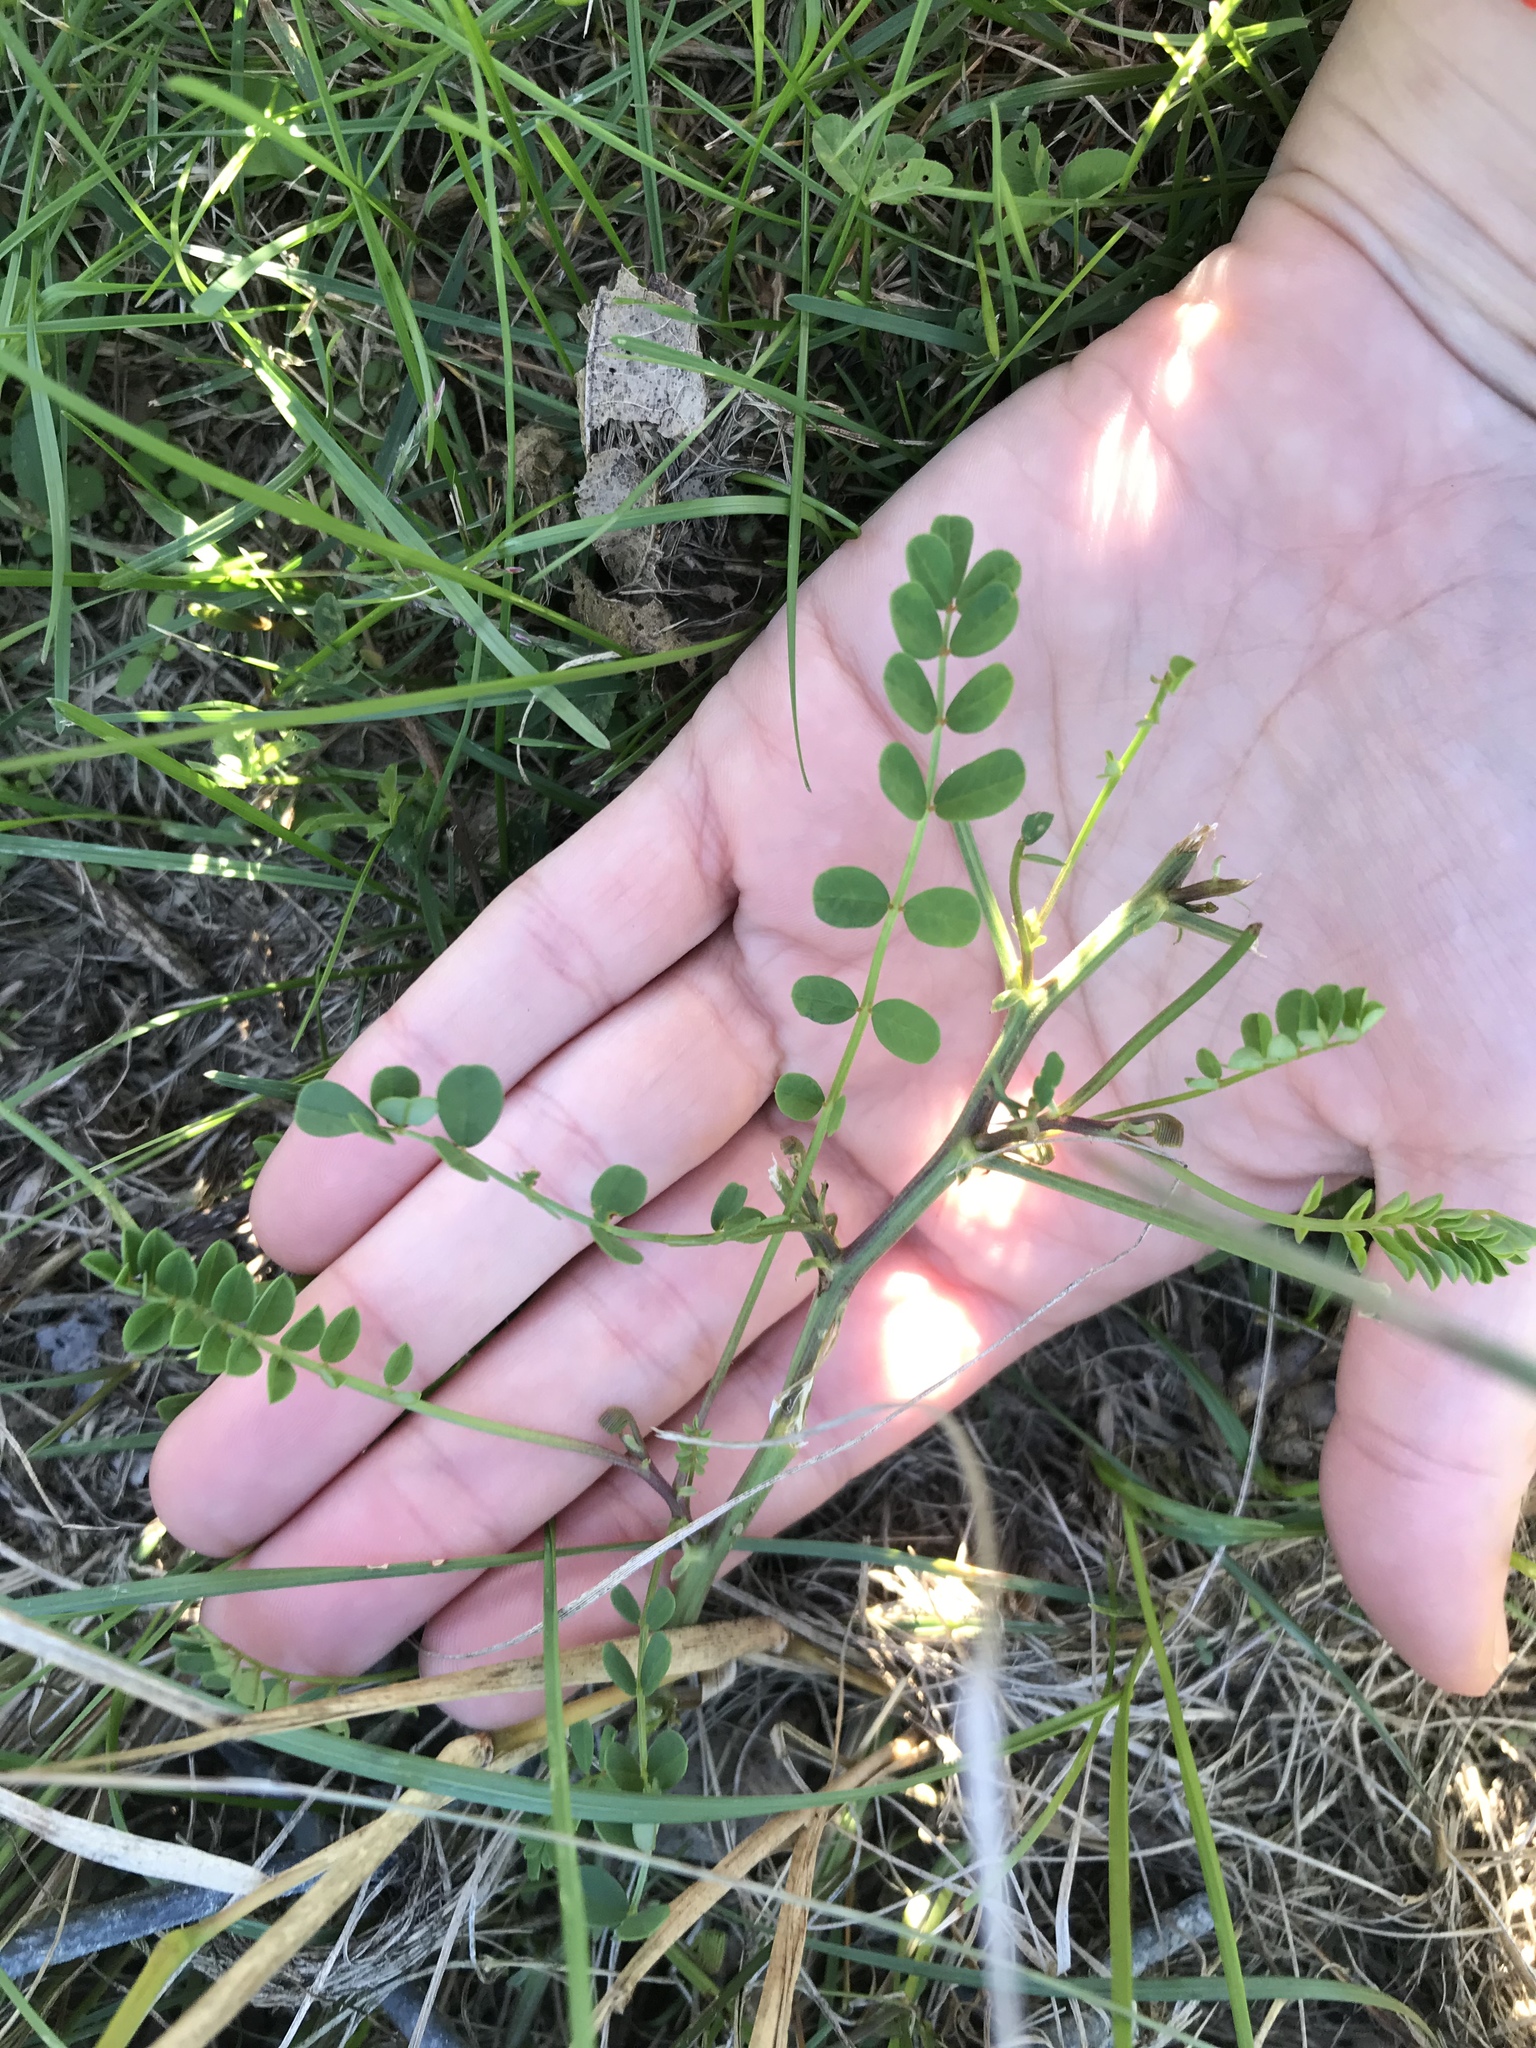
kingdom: Plantae
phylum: Tracheophyta
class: Magnoliopsida
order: Fabales
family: Fabaceae
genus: Coronilla
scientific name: Coronilla varia
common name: Crownvetch
